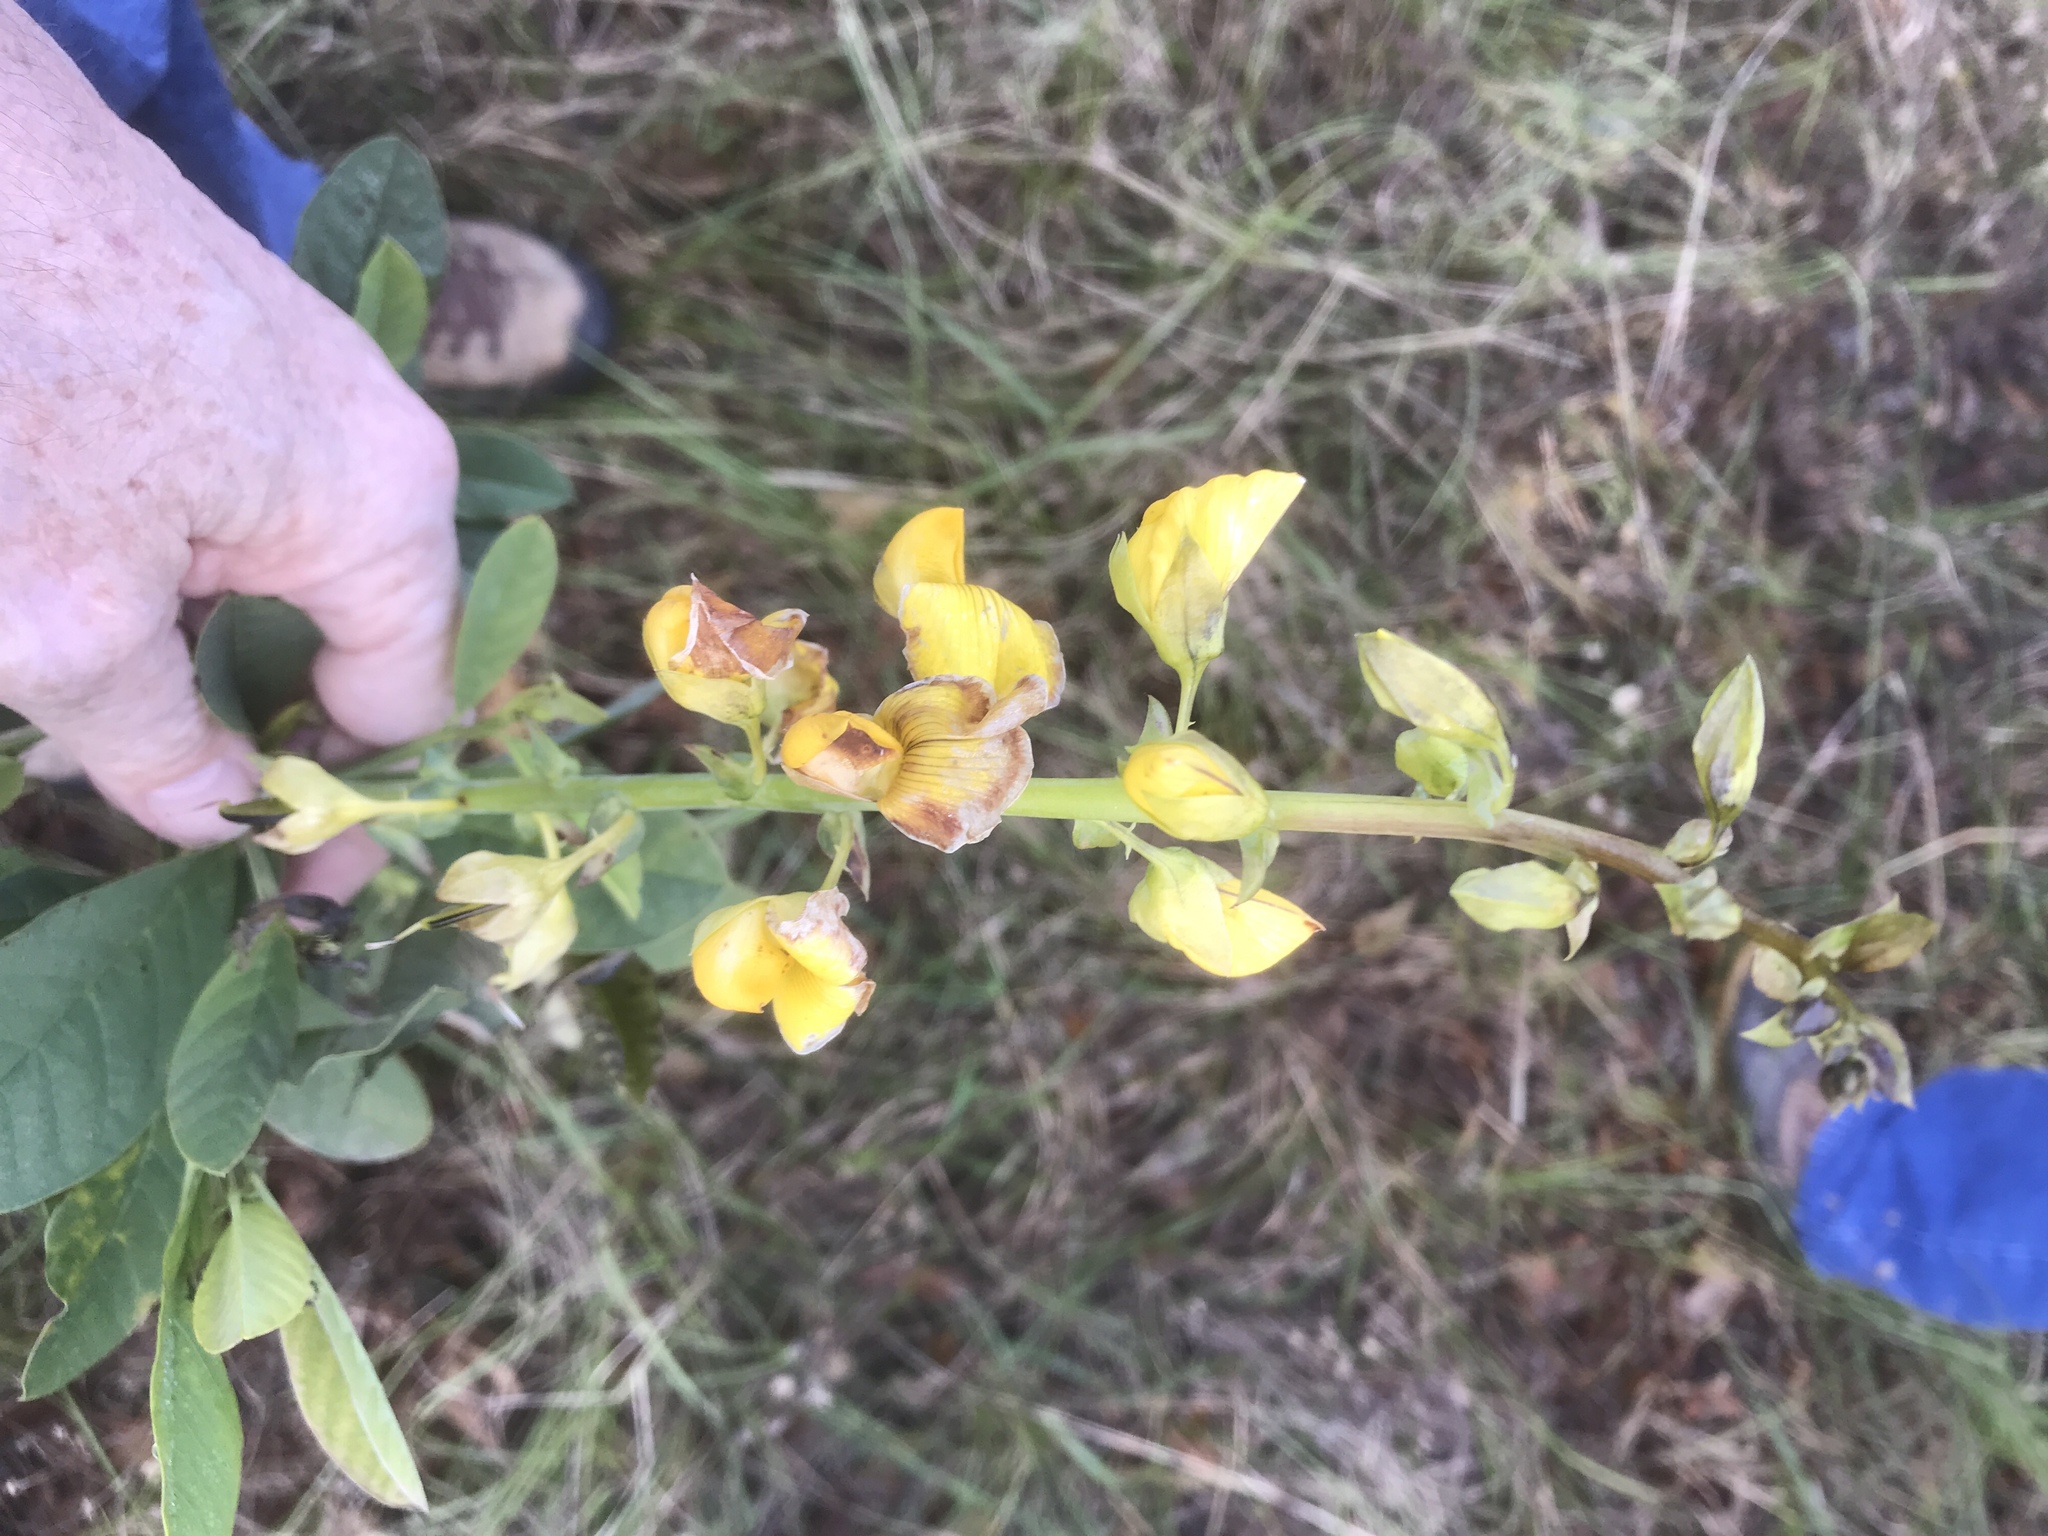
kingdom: Plantae
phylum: Tracheophyta
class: Magnoliopsida
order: Fabales
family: Fabaceae
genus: Crotalaria
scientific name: Crotalaria spectabilis
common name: Showy rattlebox
